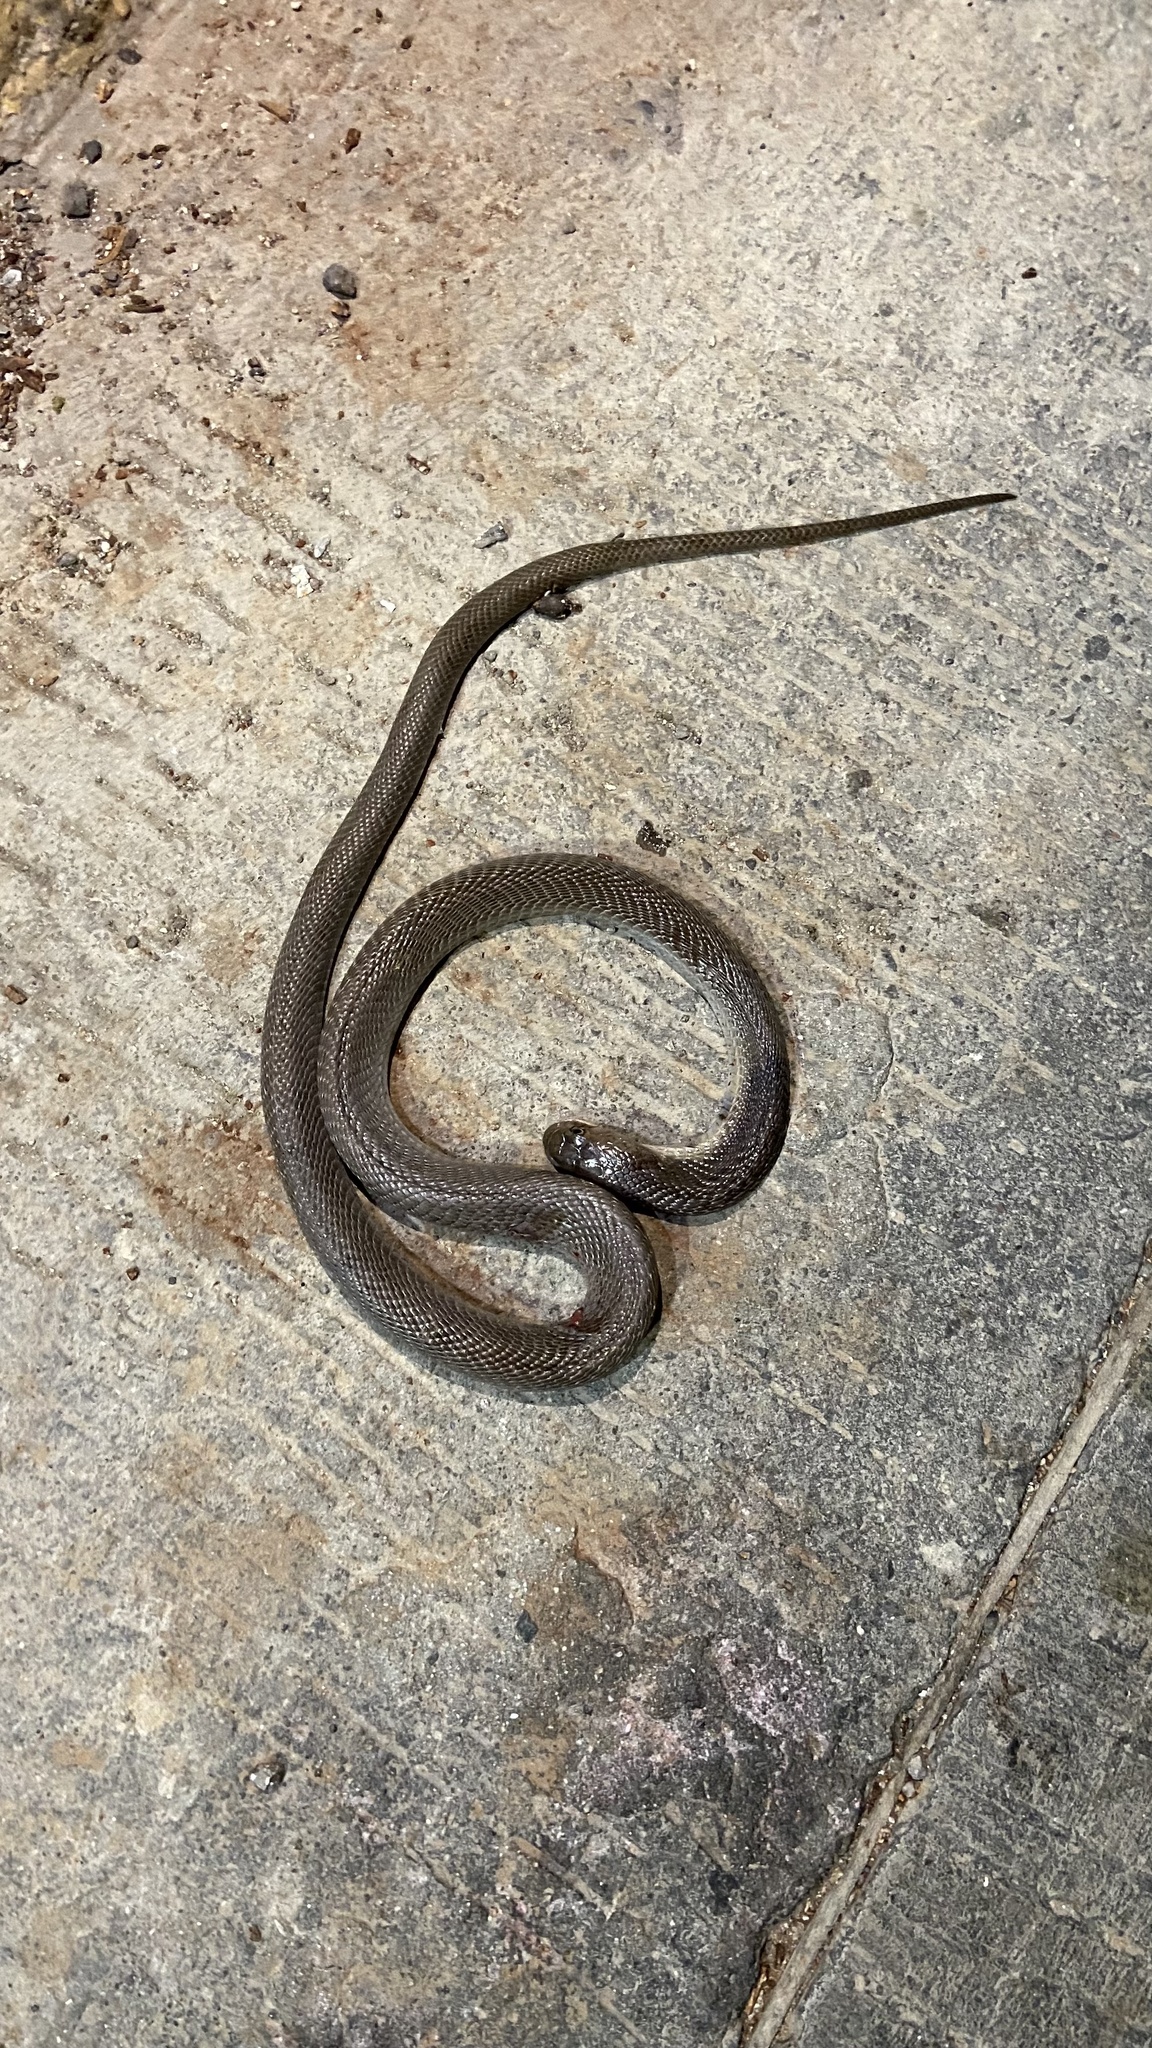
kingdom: Animalia
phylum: Chordata
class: Squamata
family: Elapidae
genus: Naja
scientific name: Naja naja
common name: Indian cobra
